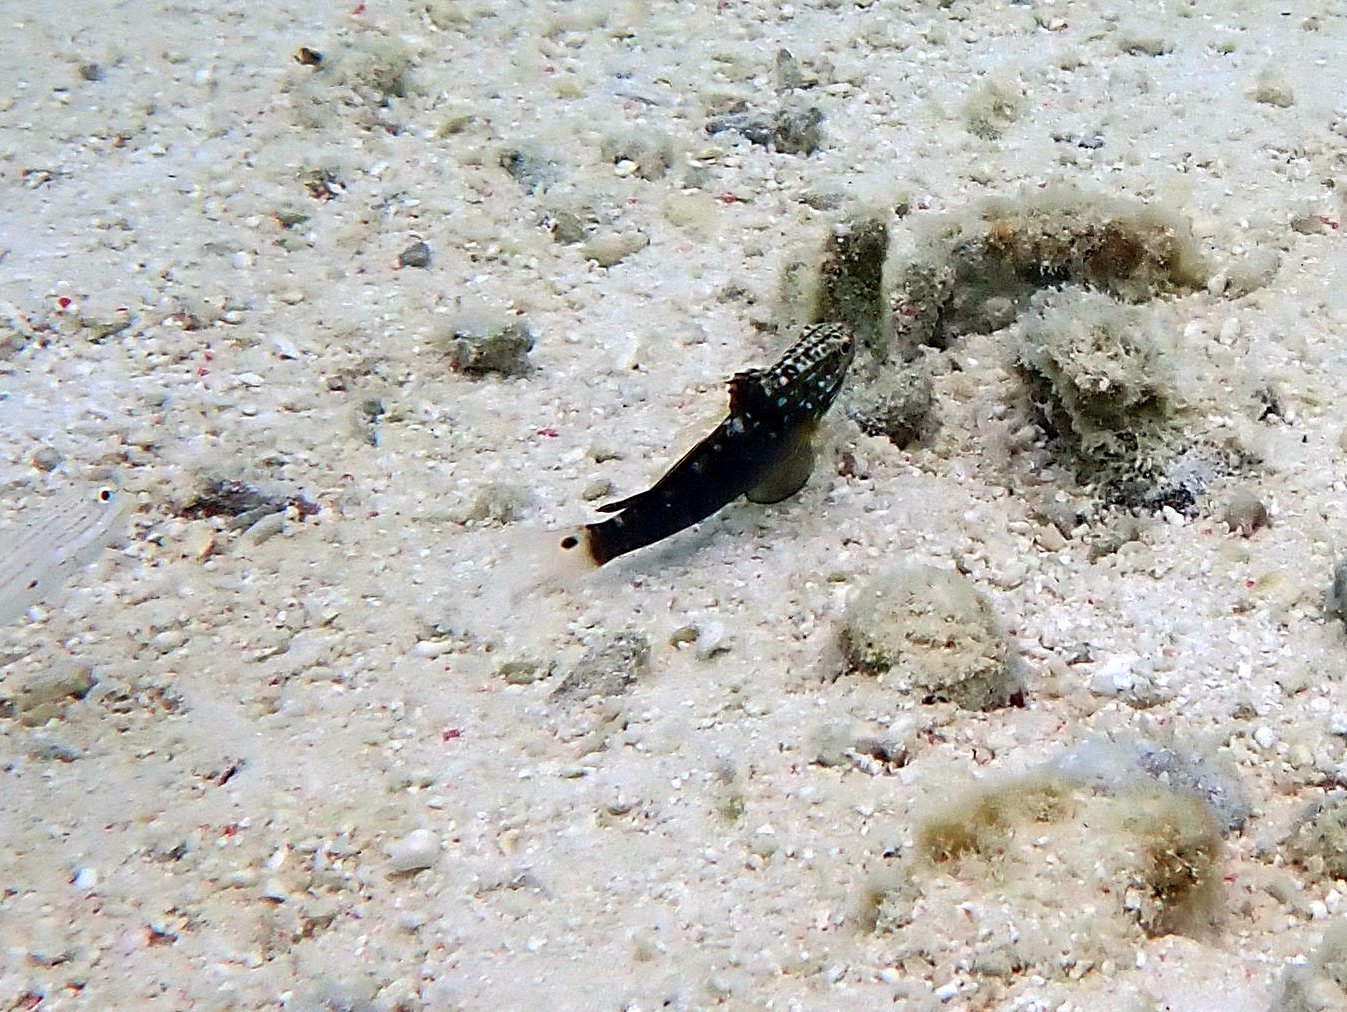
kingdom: Animalia
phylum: Chordata
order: Perciformes
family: Gobiidae
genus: Amblygobius
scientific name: Amblygobius phalaena
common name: Banded goby
